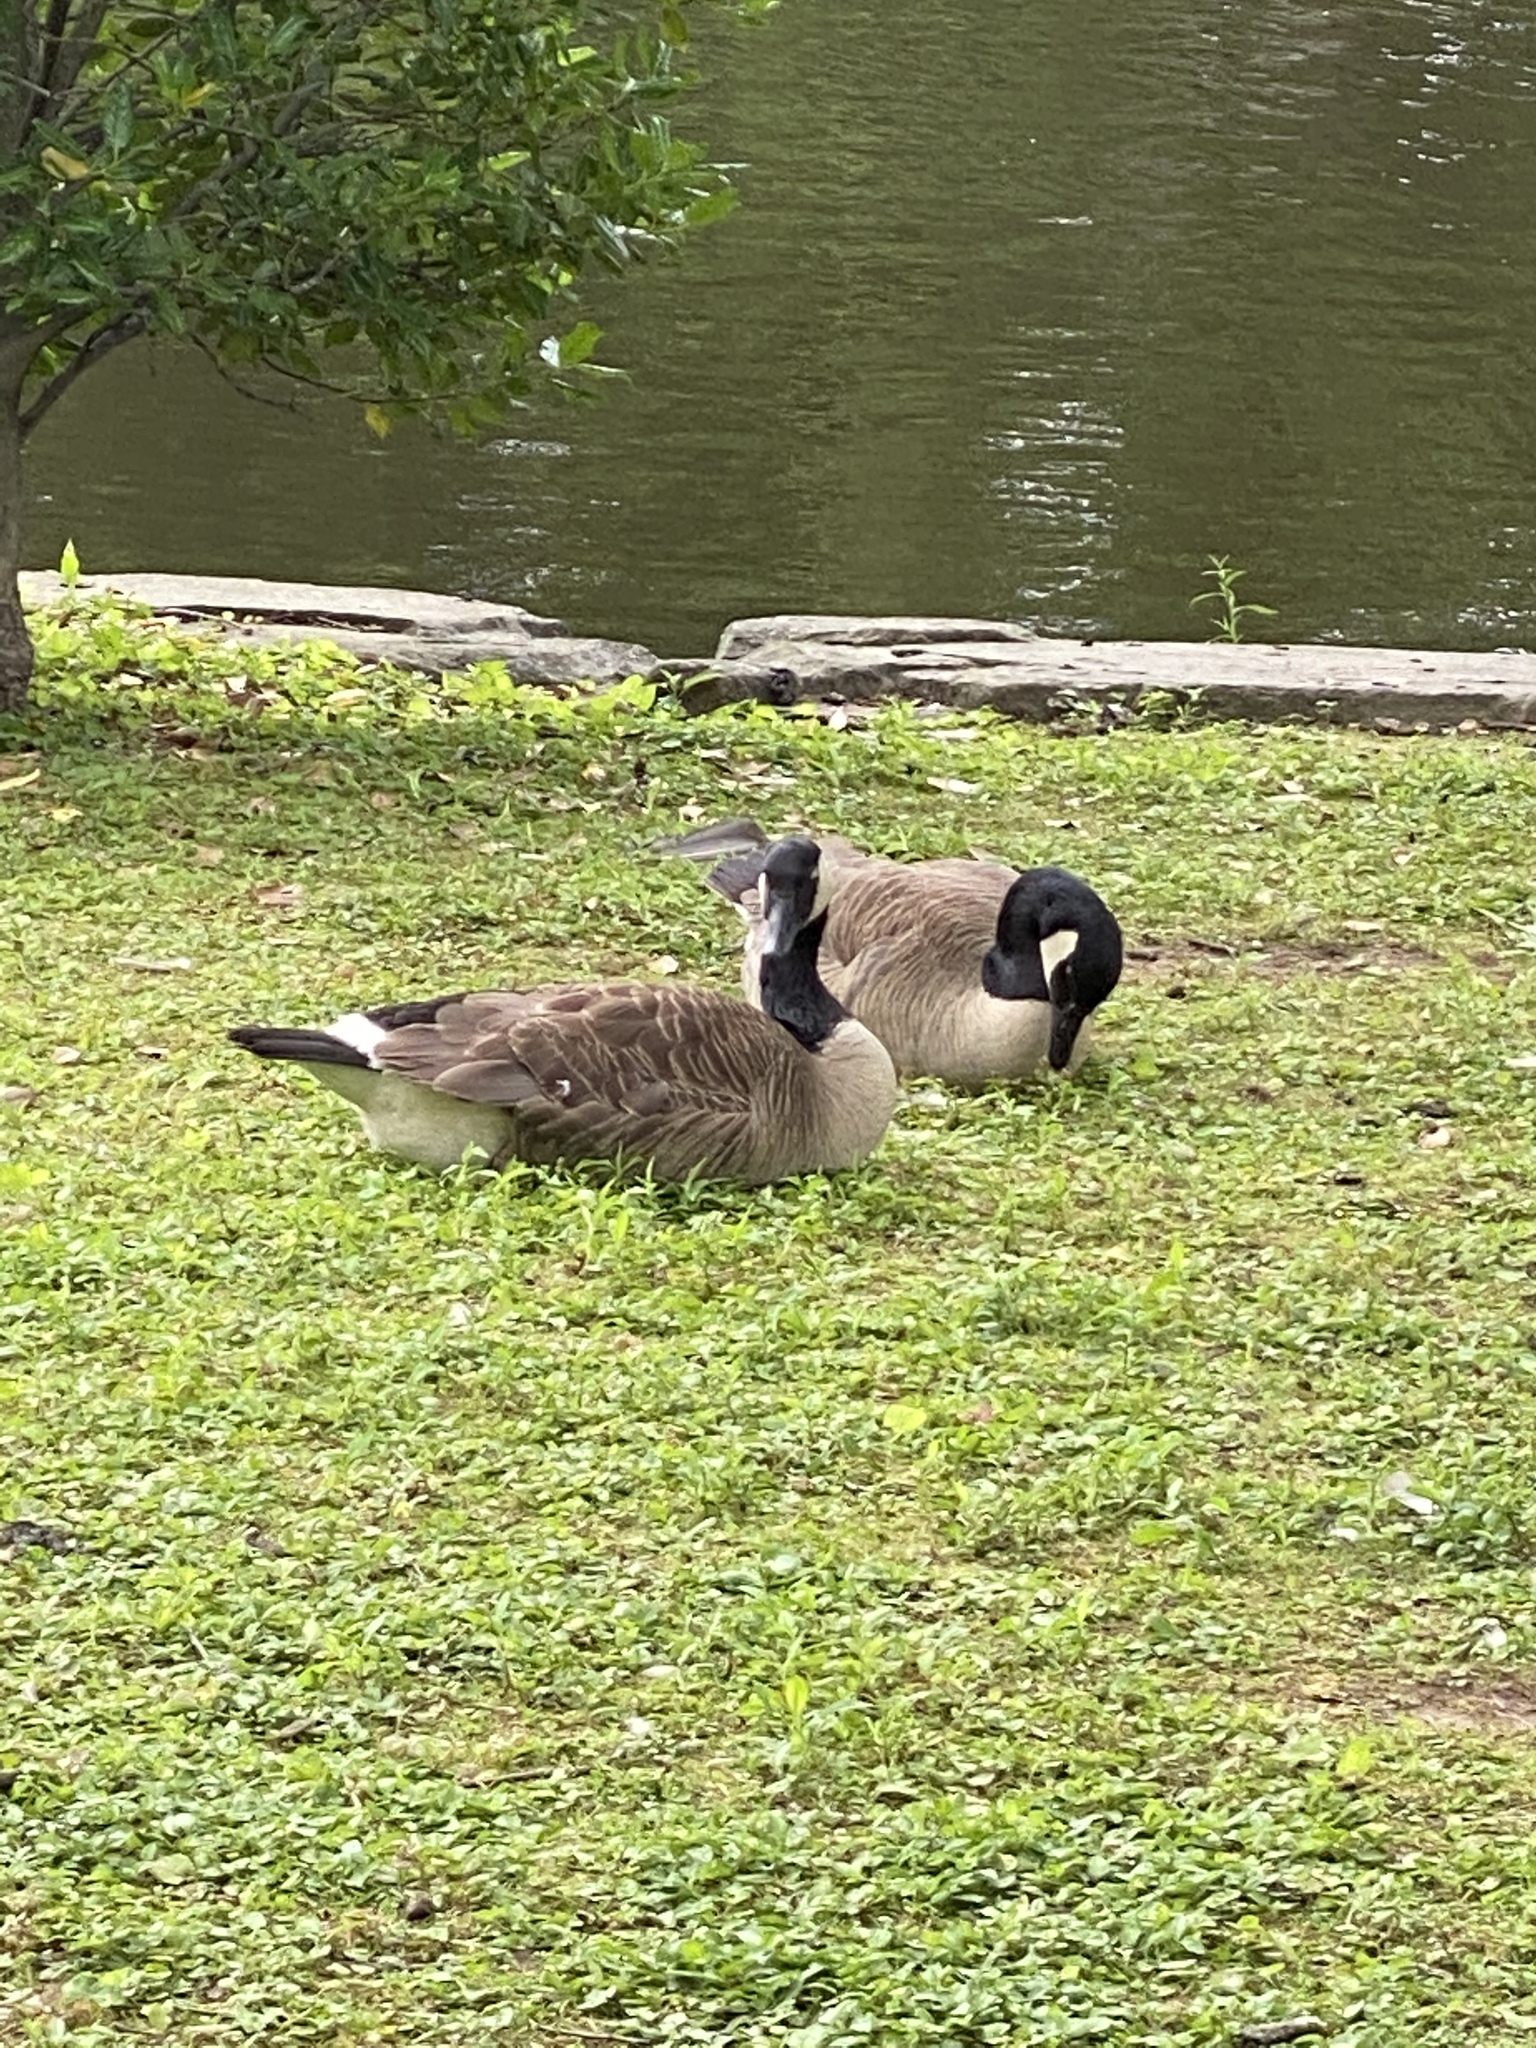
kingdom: Animalia
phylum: Chordata
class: Aves
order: Anseriformes
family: Anatidae
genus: Branta
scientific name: Branta canadensis
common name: Canada goose
